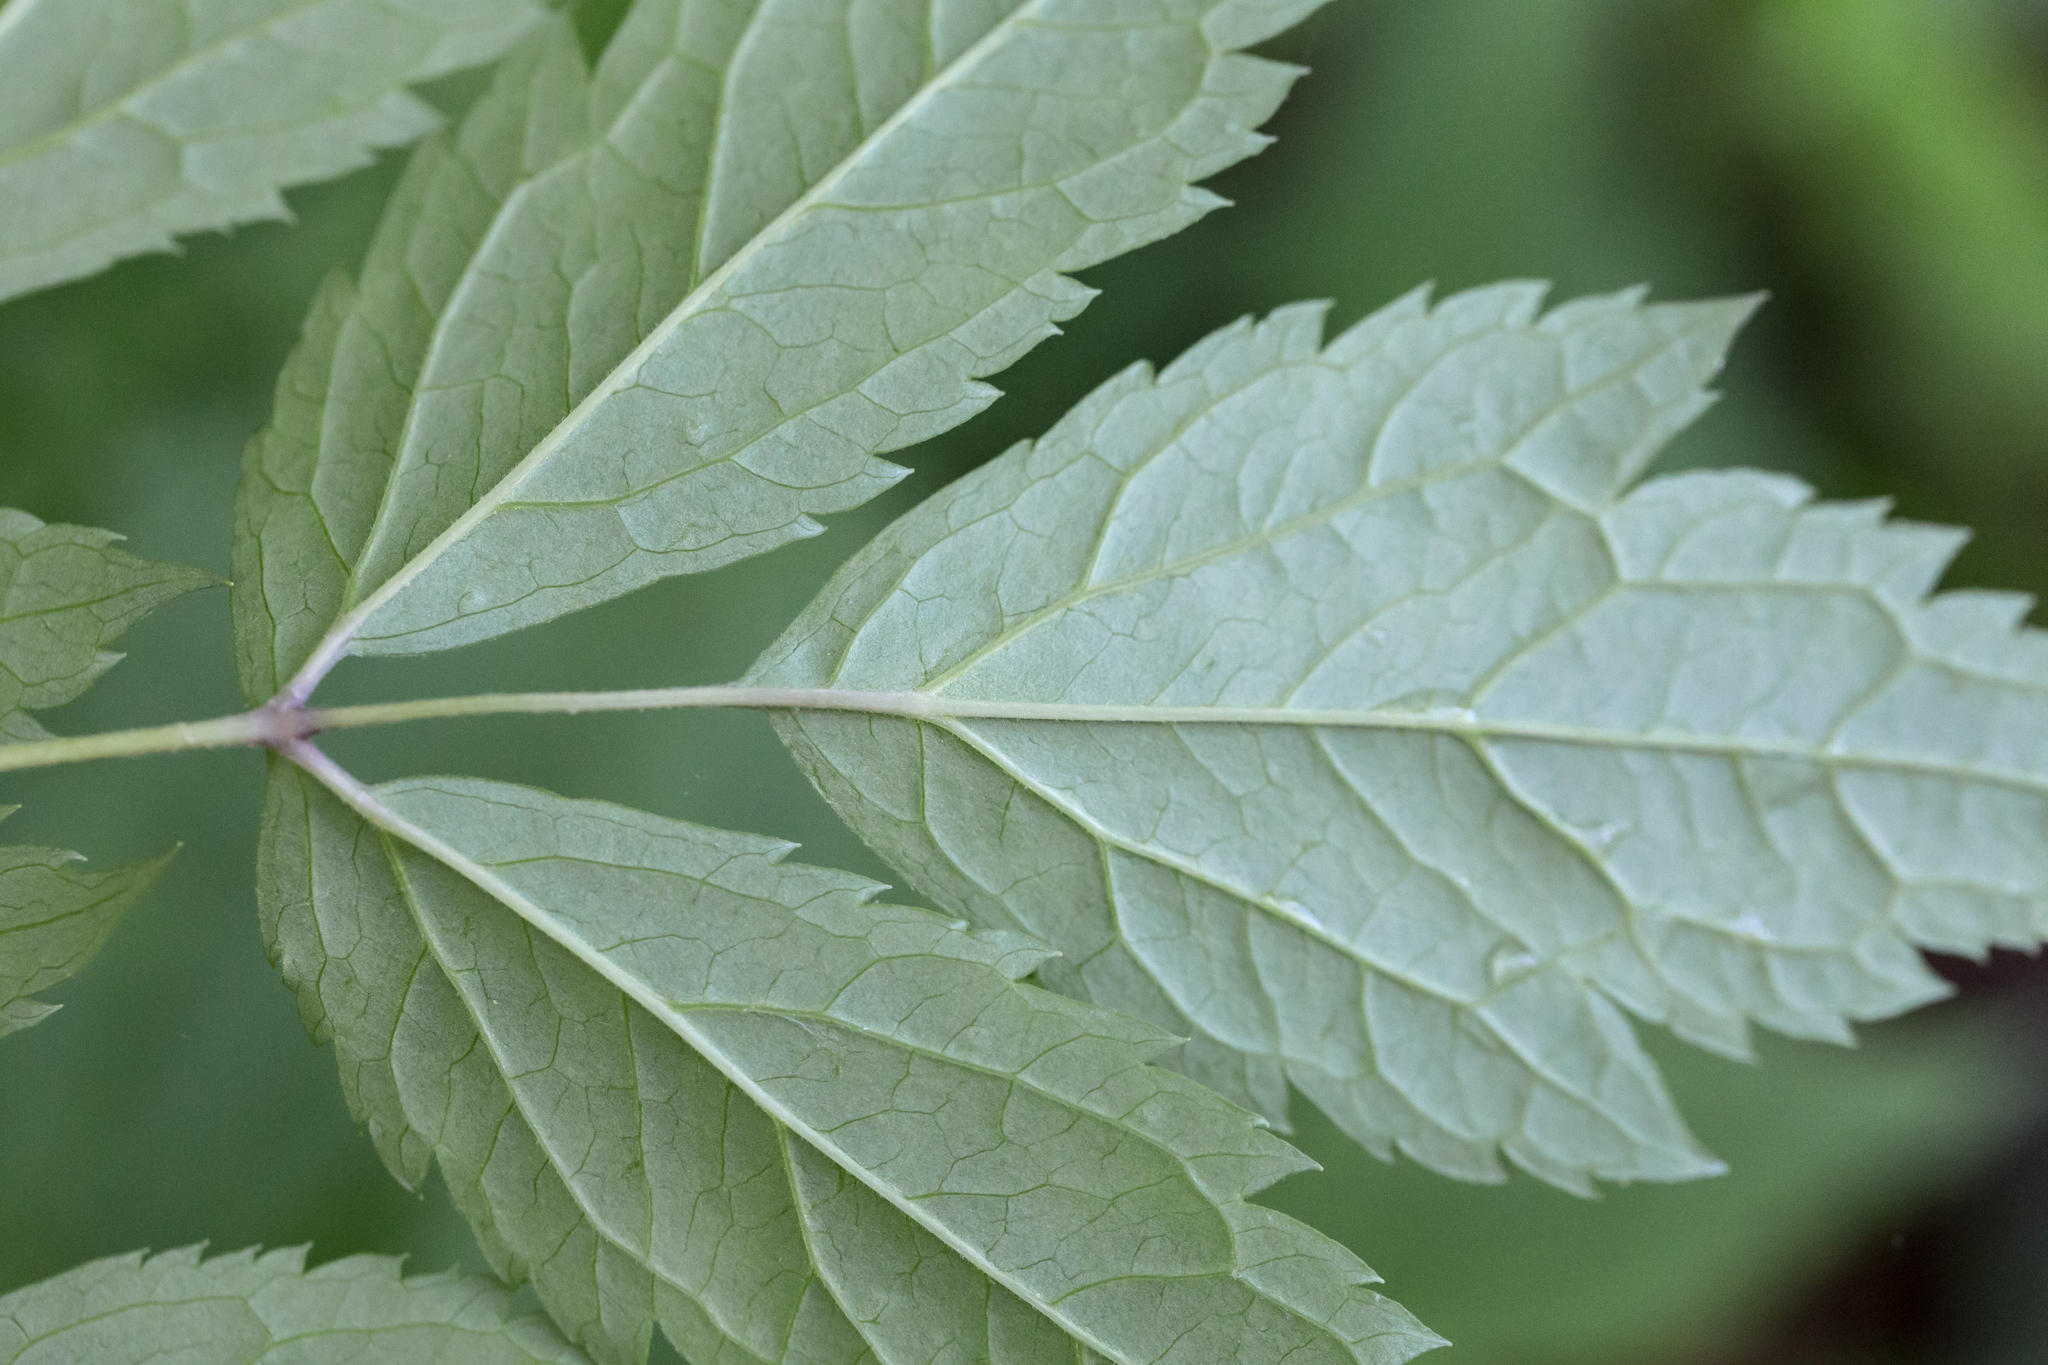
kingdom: Plantae
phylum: Tracheophyta
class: Magnoliopsida
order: Ranunculales
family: Ranunculaceae
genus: Actaea
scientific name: Actaea racemosa
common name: Black cohosh
